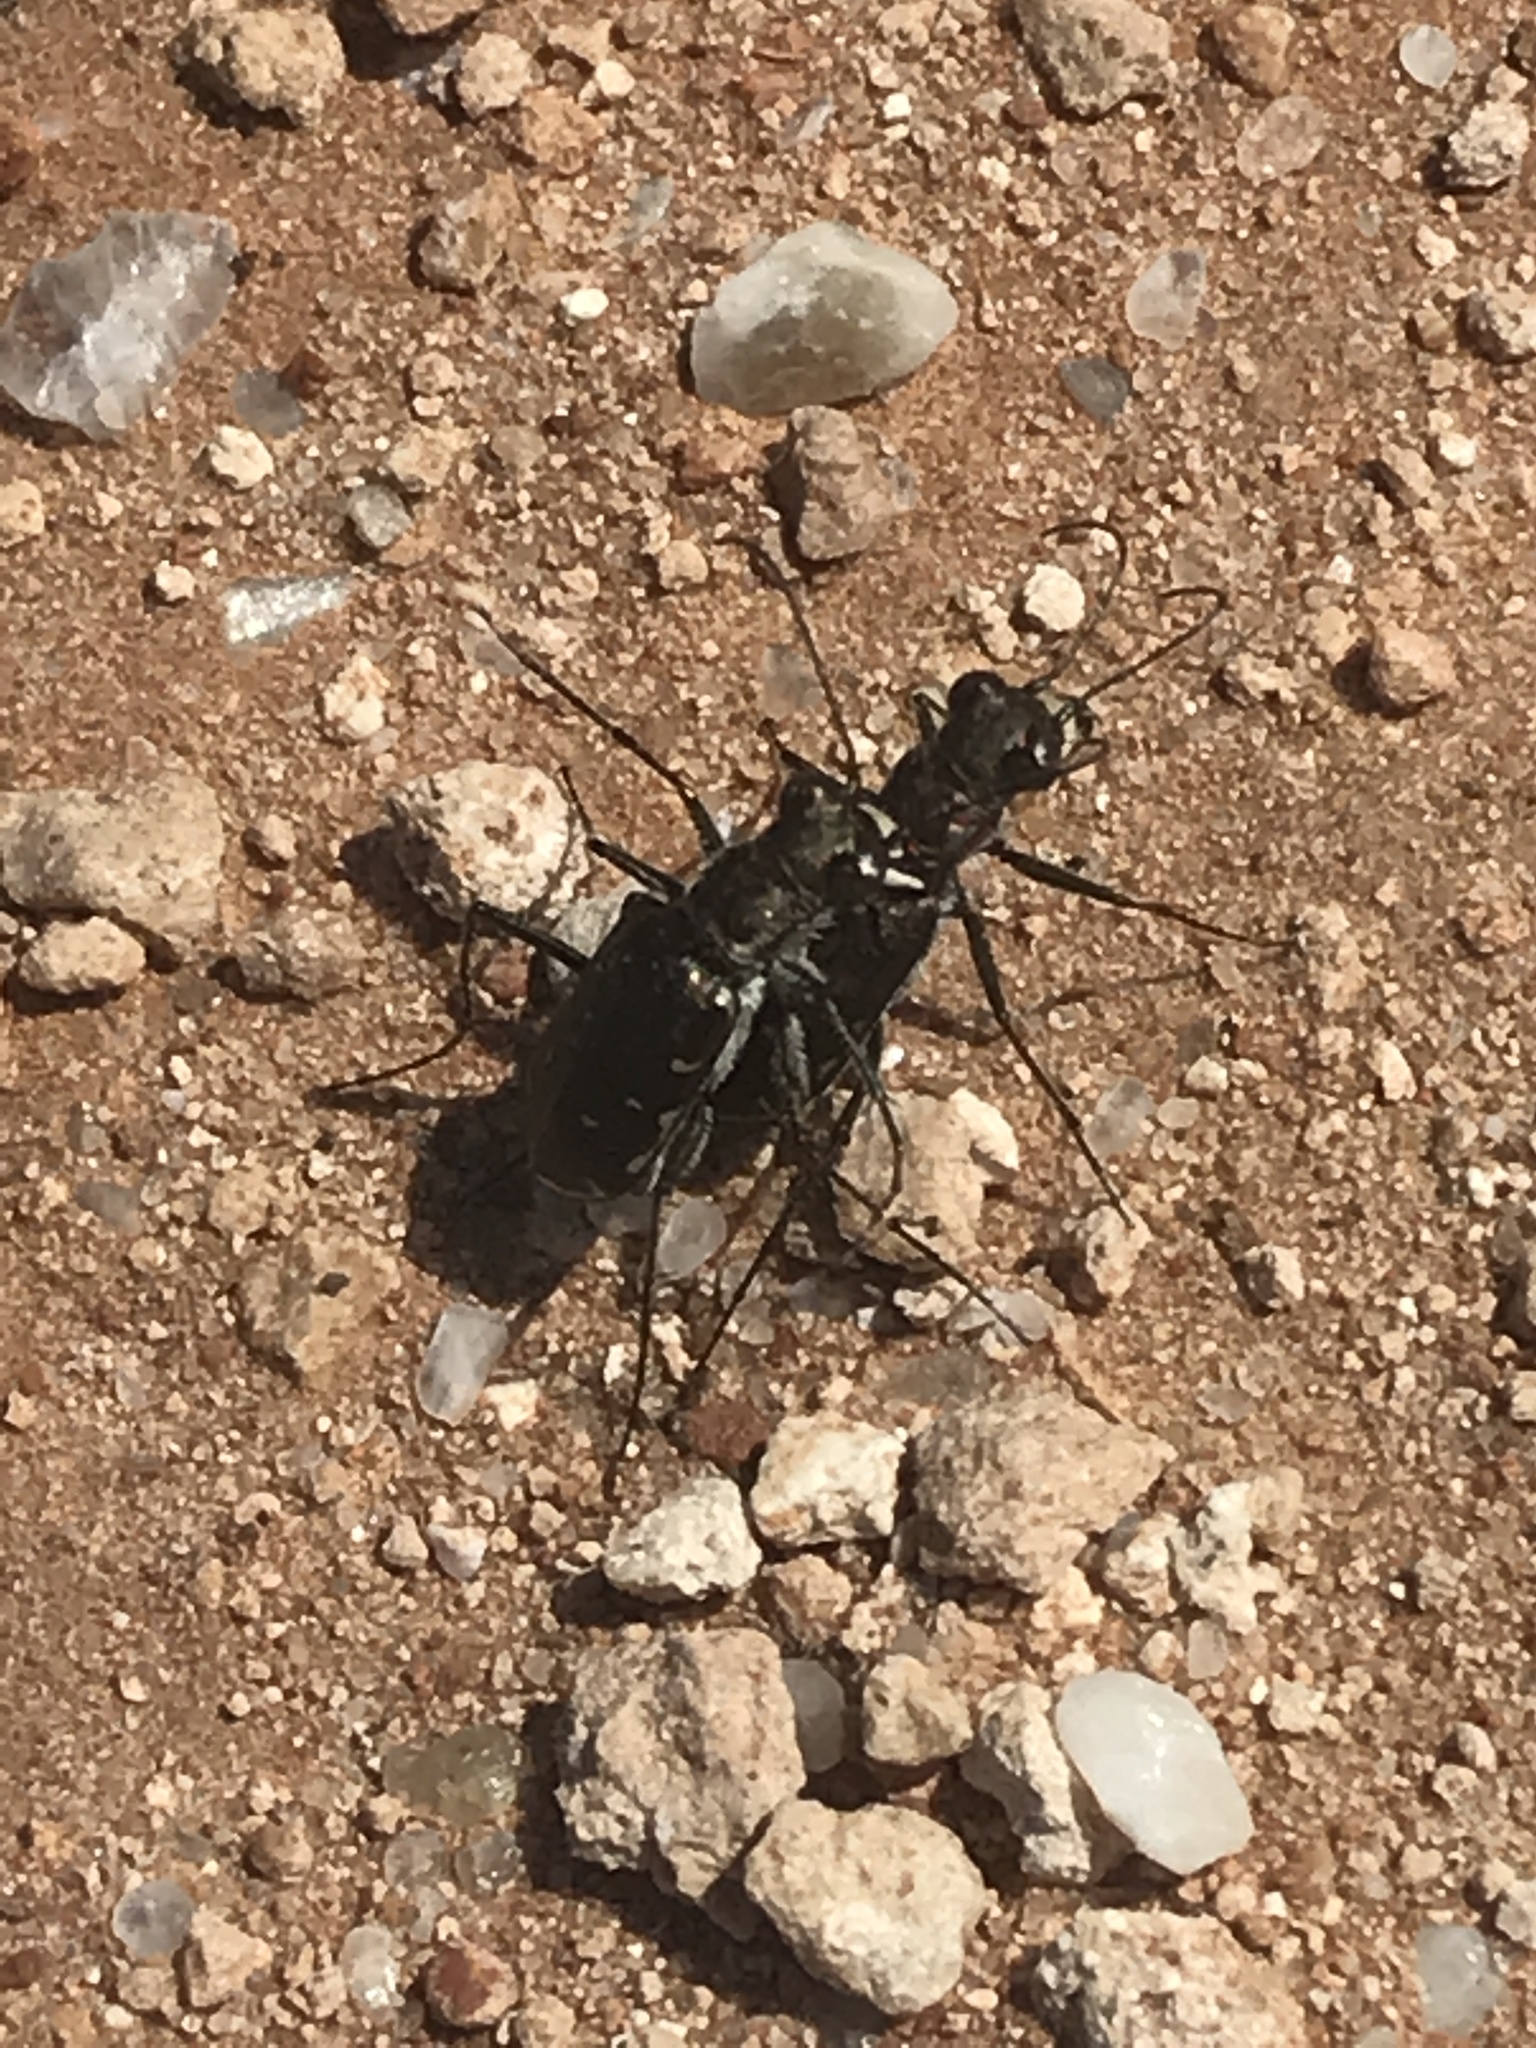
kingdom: Animalia
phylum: Arthropoda
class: Insecta
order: Coleoptera
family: Carabidae
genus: Cicindela
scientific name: Cicindela punctulata
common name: Punctured tiger beetle
